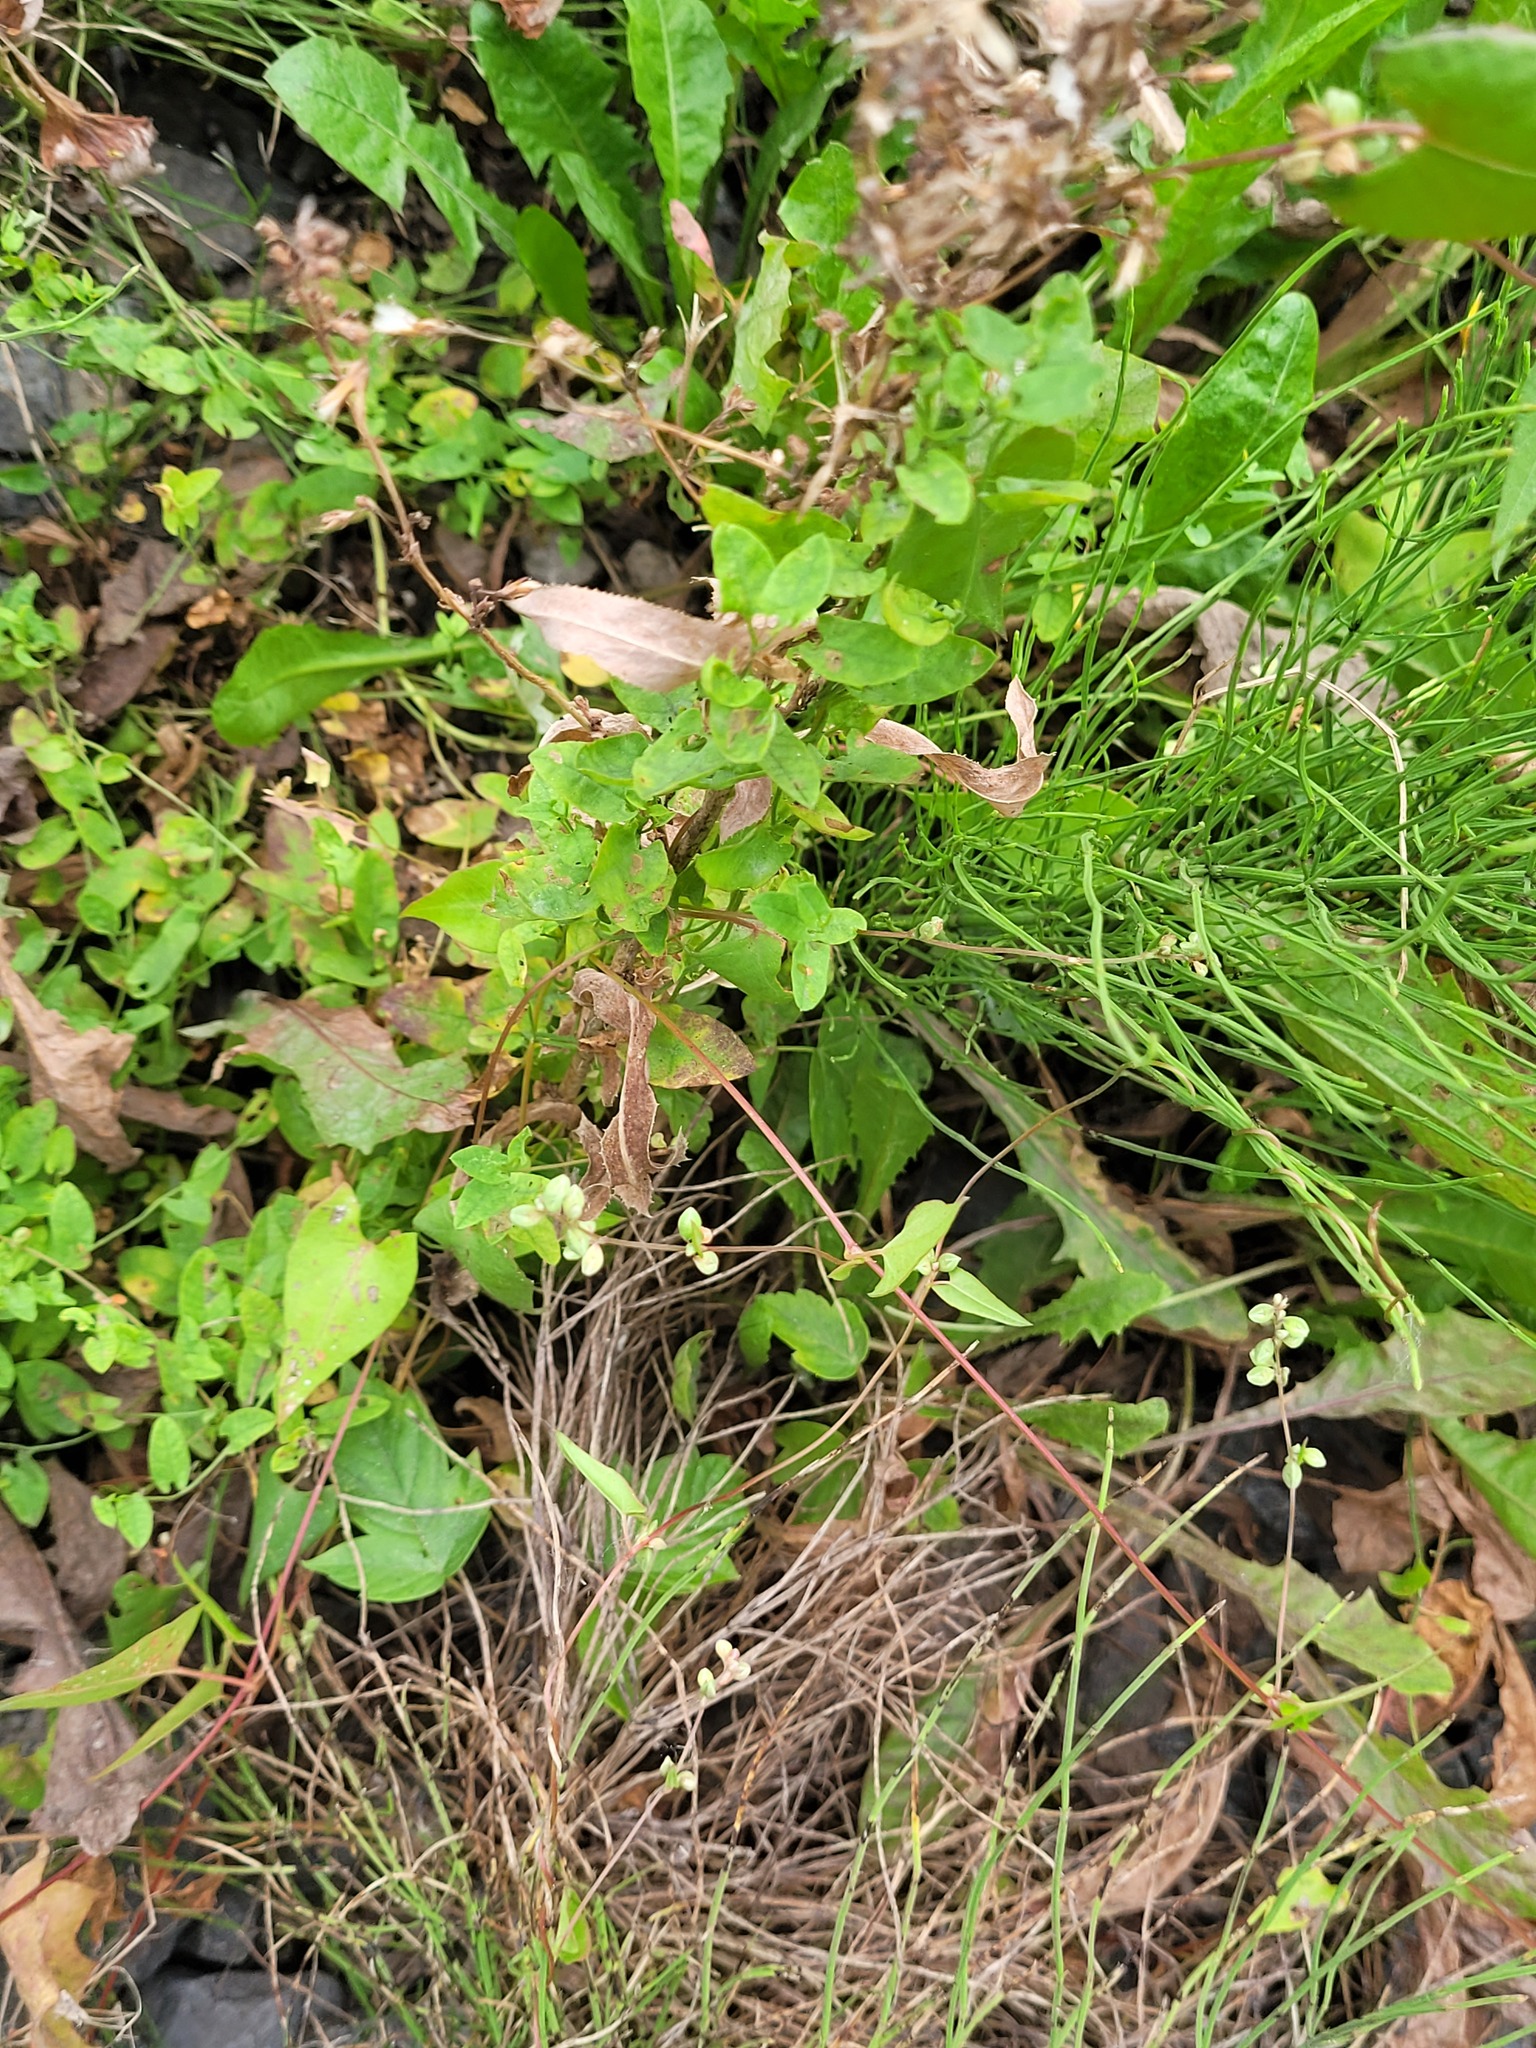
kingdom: Plantae
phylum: Tracheophyta
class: Magnoliopsida
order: Caryophyllales
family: Polygonaceae
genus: Fallopia
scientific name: Fallopia convolvulus
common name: Black bindweed
